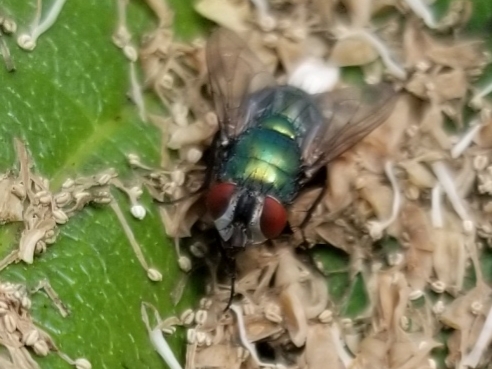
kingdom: Animalia
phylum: Arthropoda
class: Insecta
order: Diptera
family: Calliphoridae
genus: Lucilia
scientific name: Lucilia sericata
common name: Blow fly
